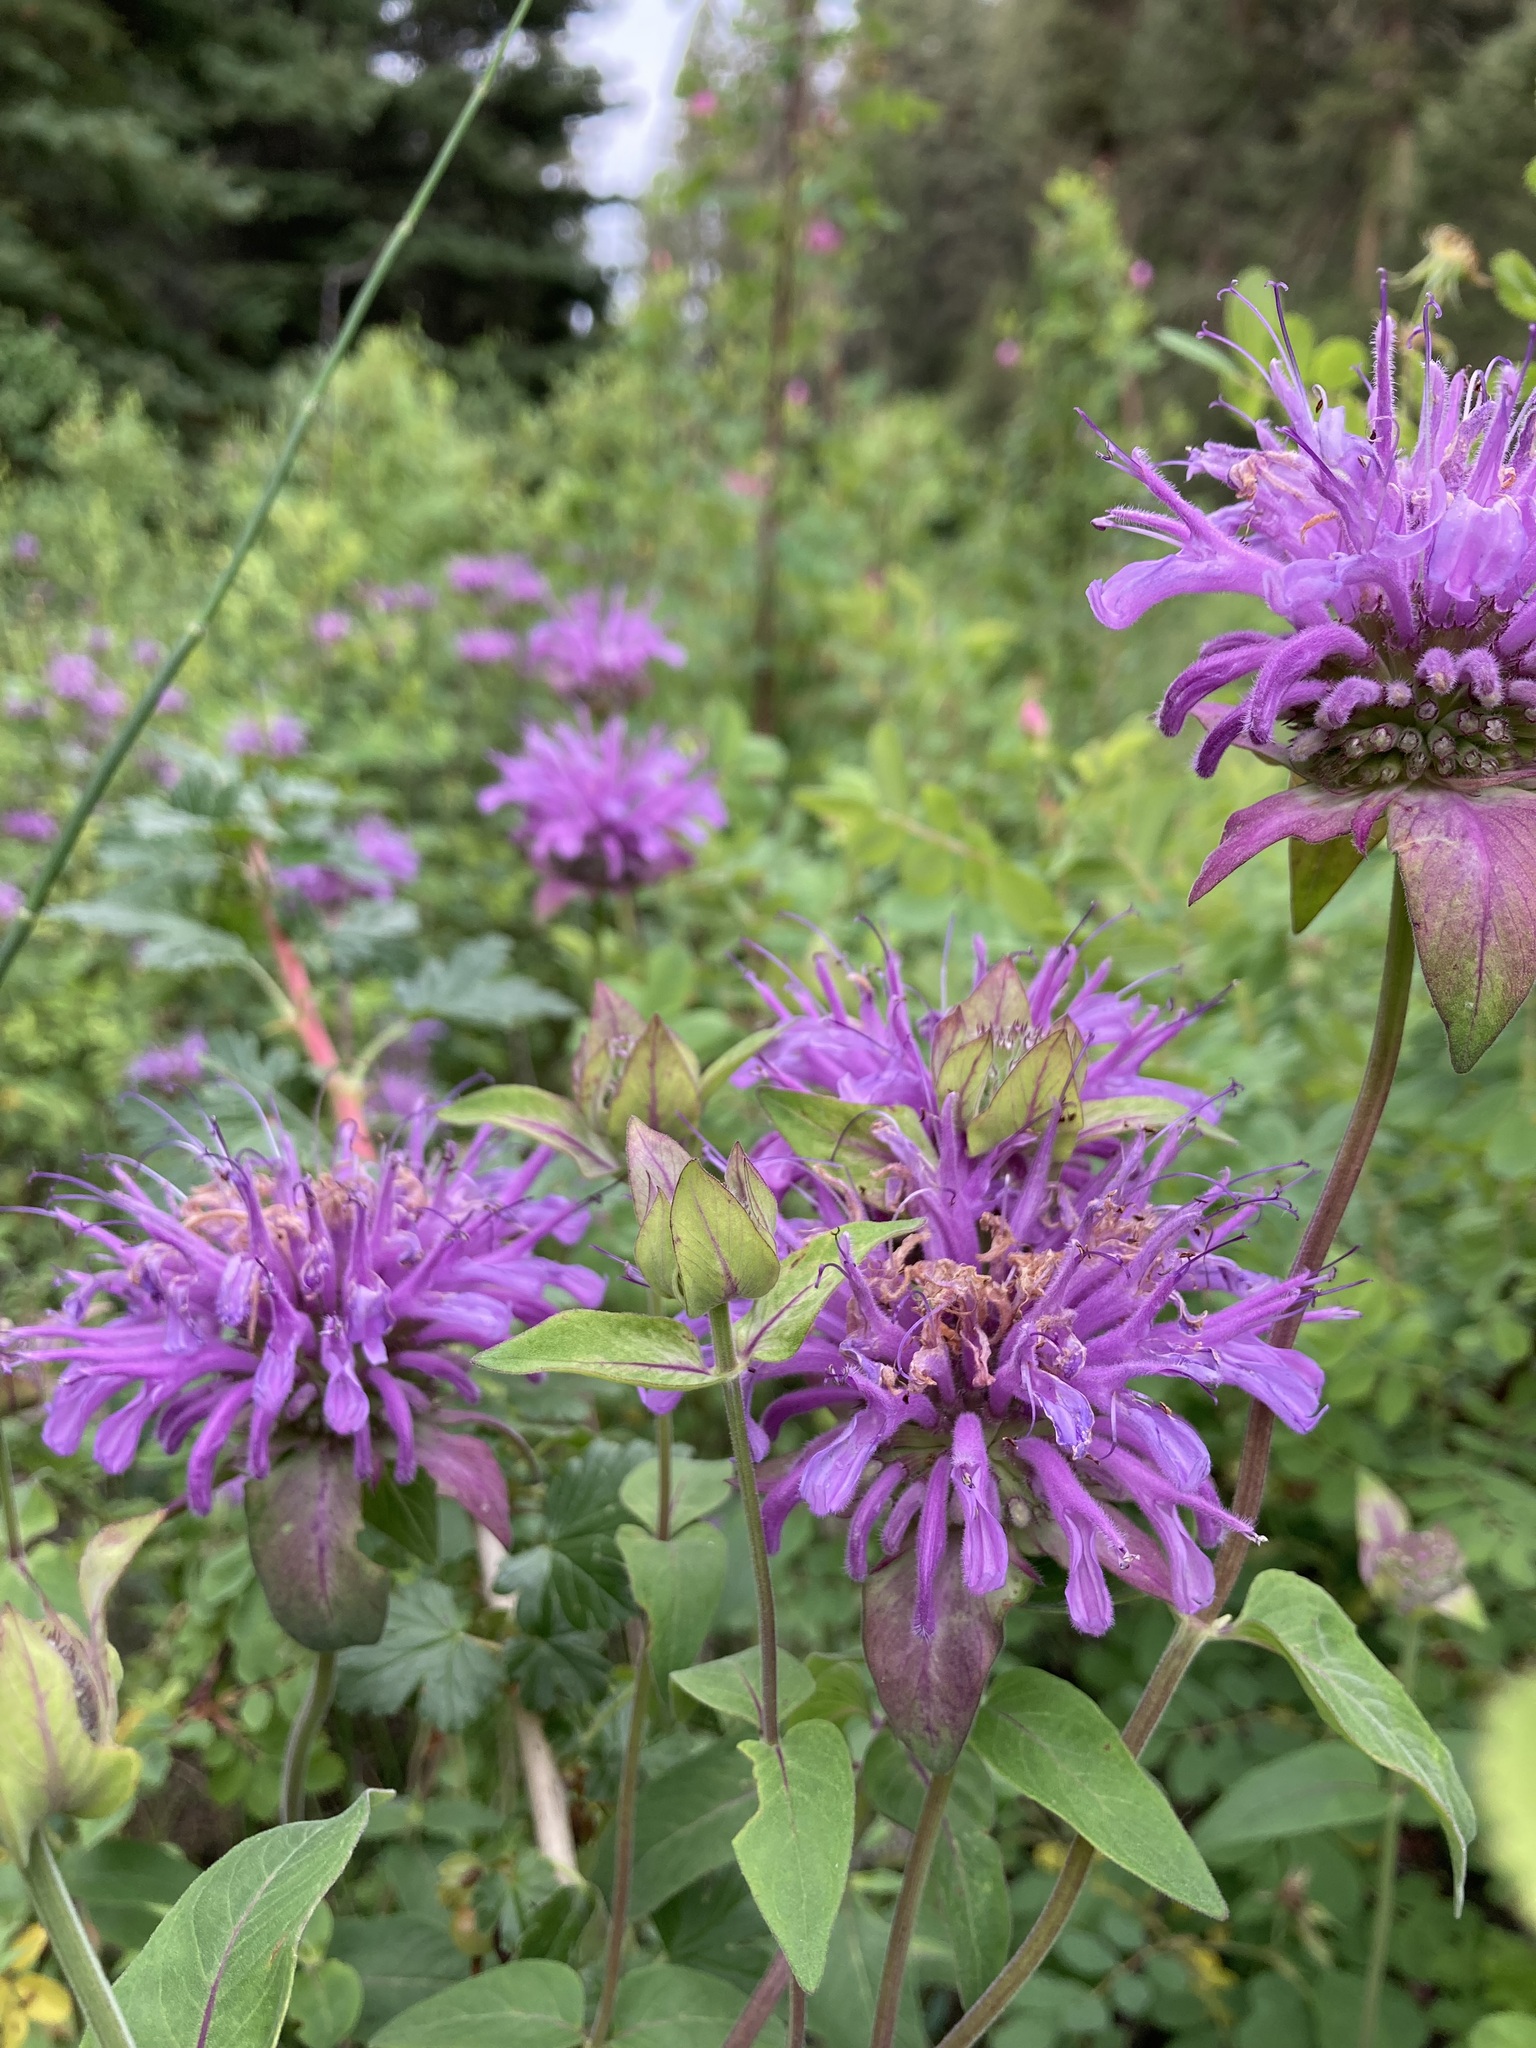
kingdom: Plantae
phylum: Tracheophyta
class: Magnoliopsida
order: Lamiales
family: Lamiaceae
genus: Monarda
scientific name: Monarda fistulosa
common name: Purple beebalm
